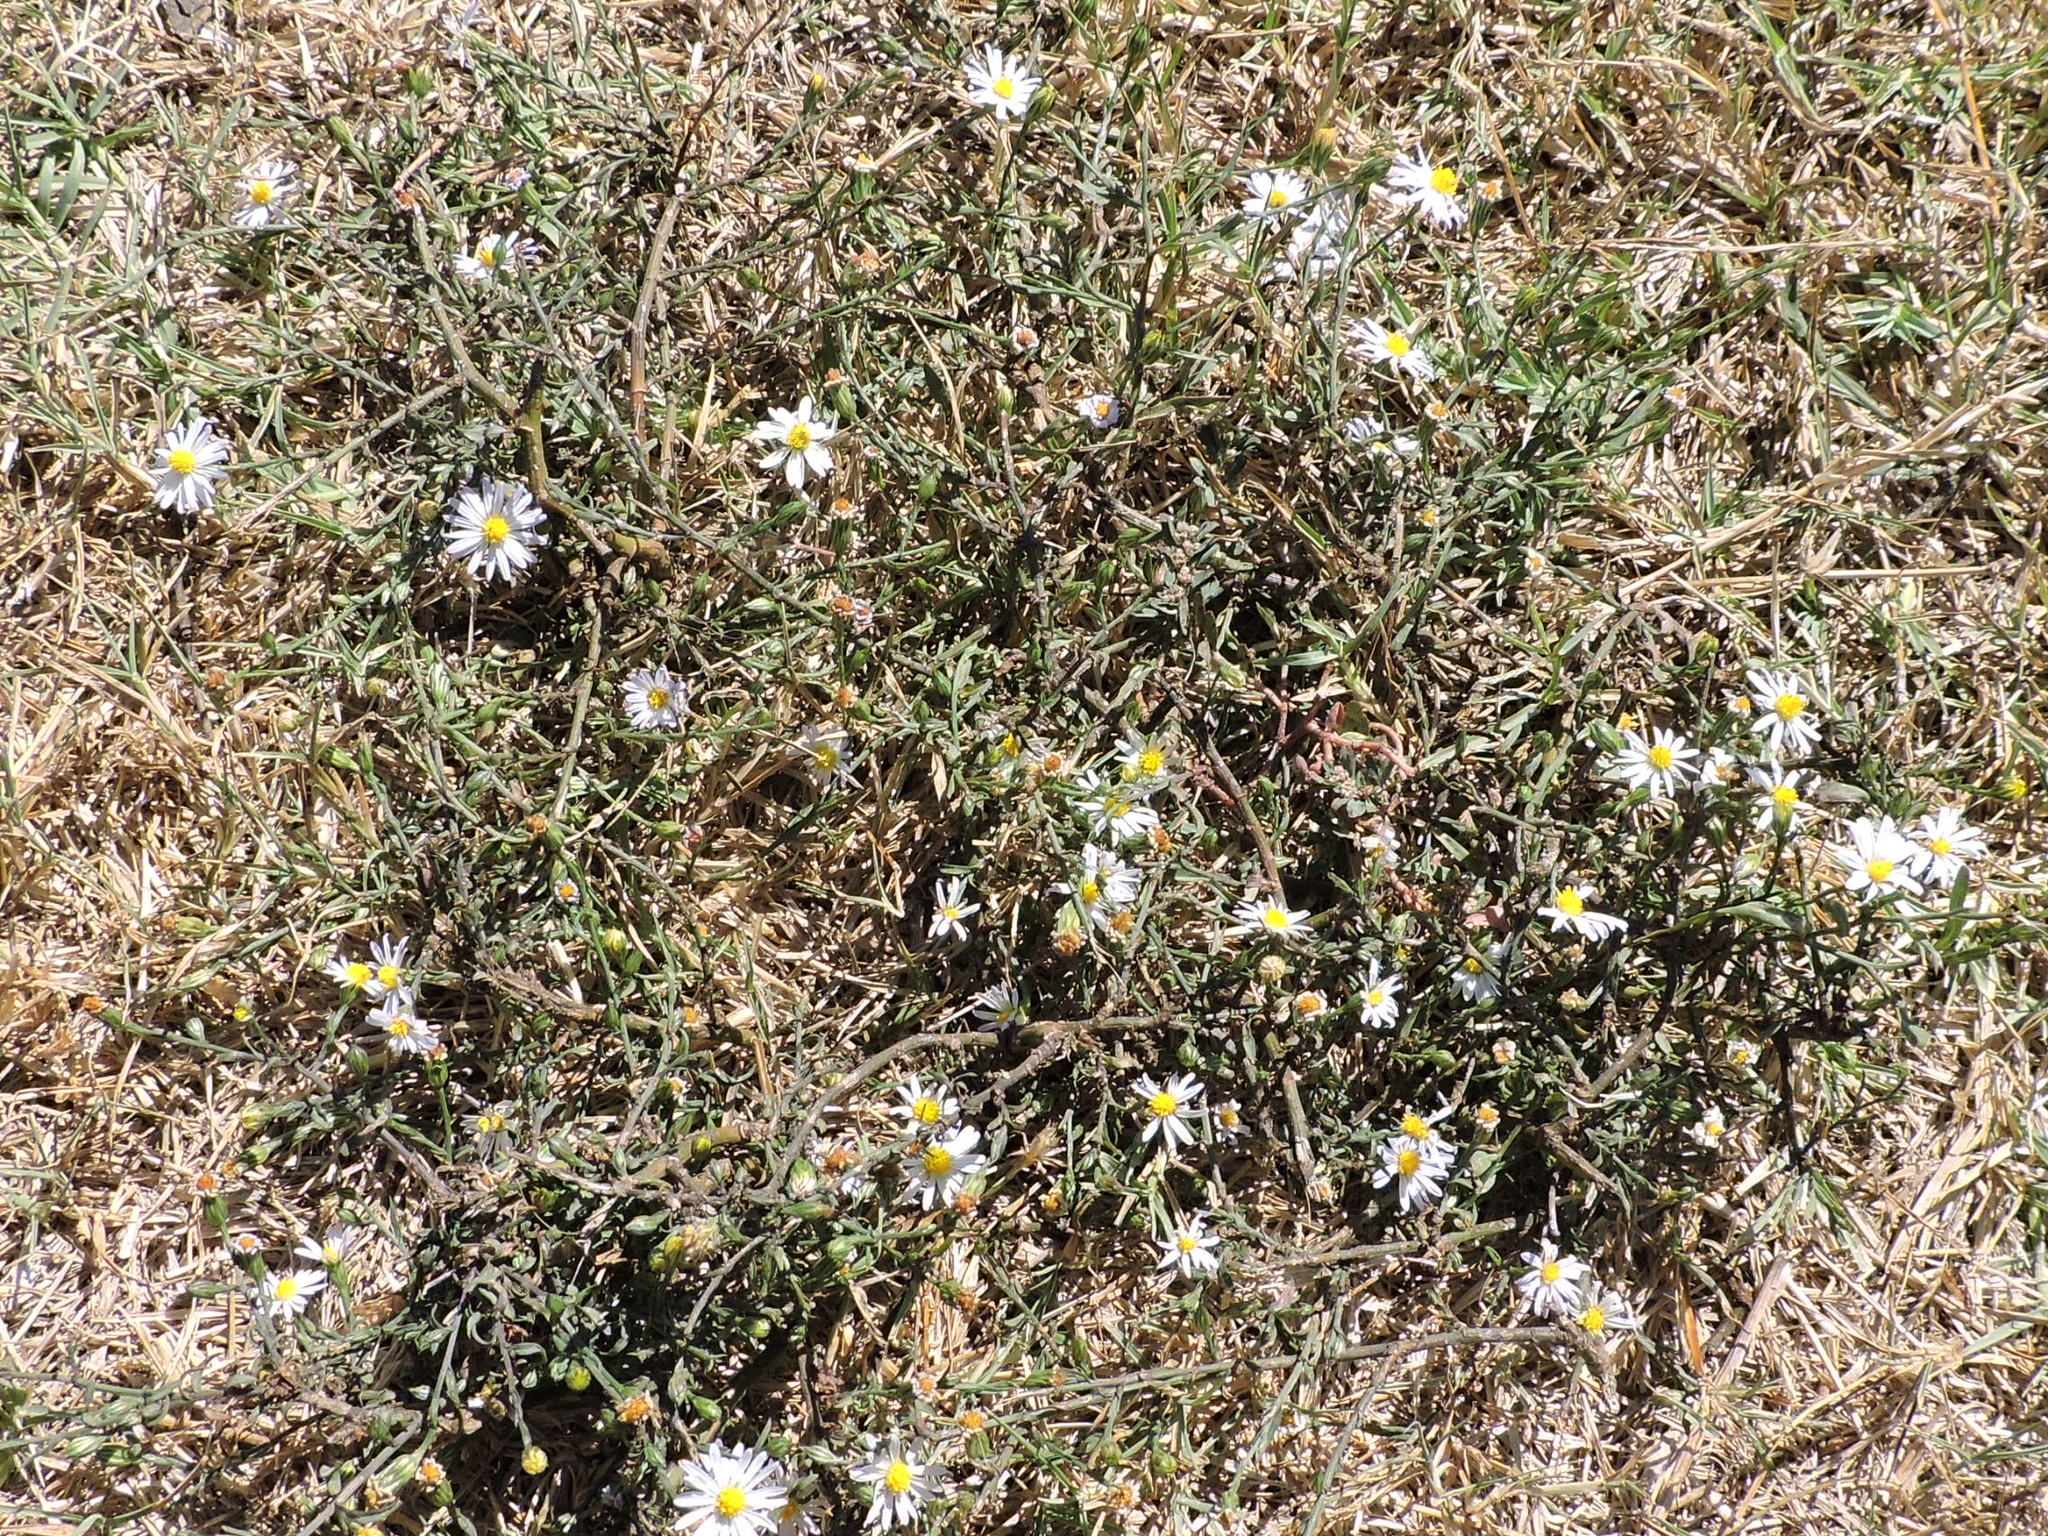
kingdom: Plantae
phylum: Tracheophyta
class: Magnoliopsida
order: Asterales
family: Asteraceae
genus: Symphyotrichum
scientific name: Symphyotrichum divaricatum
